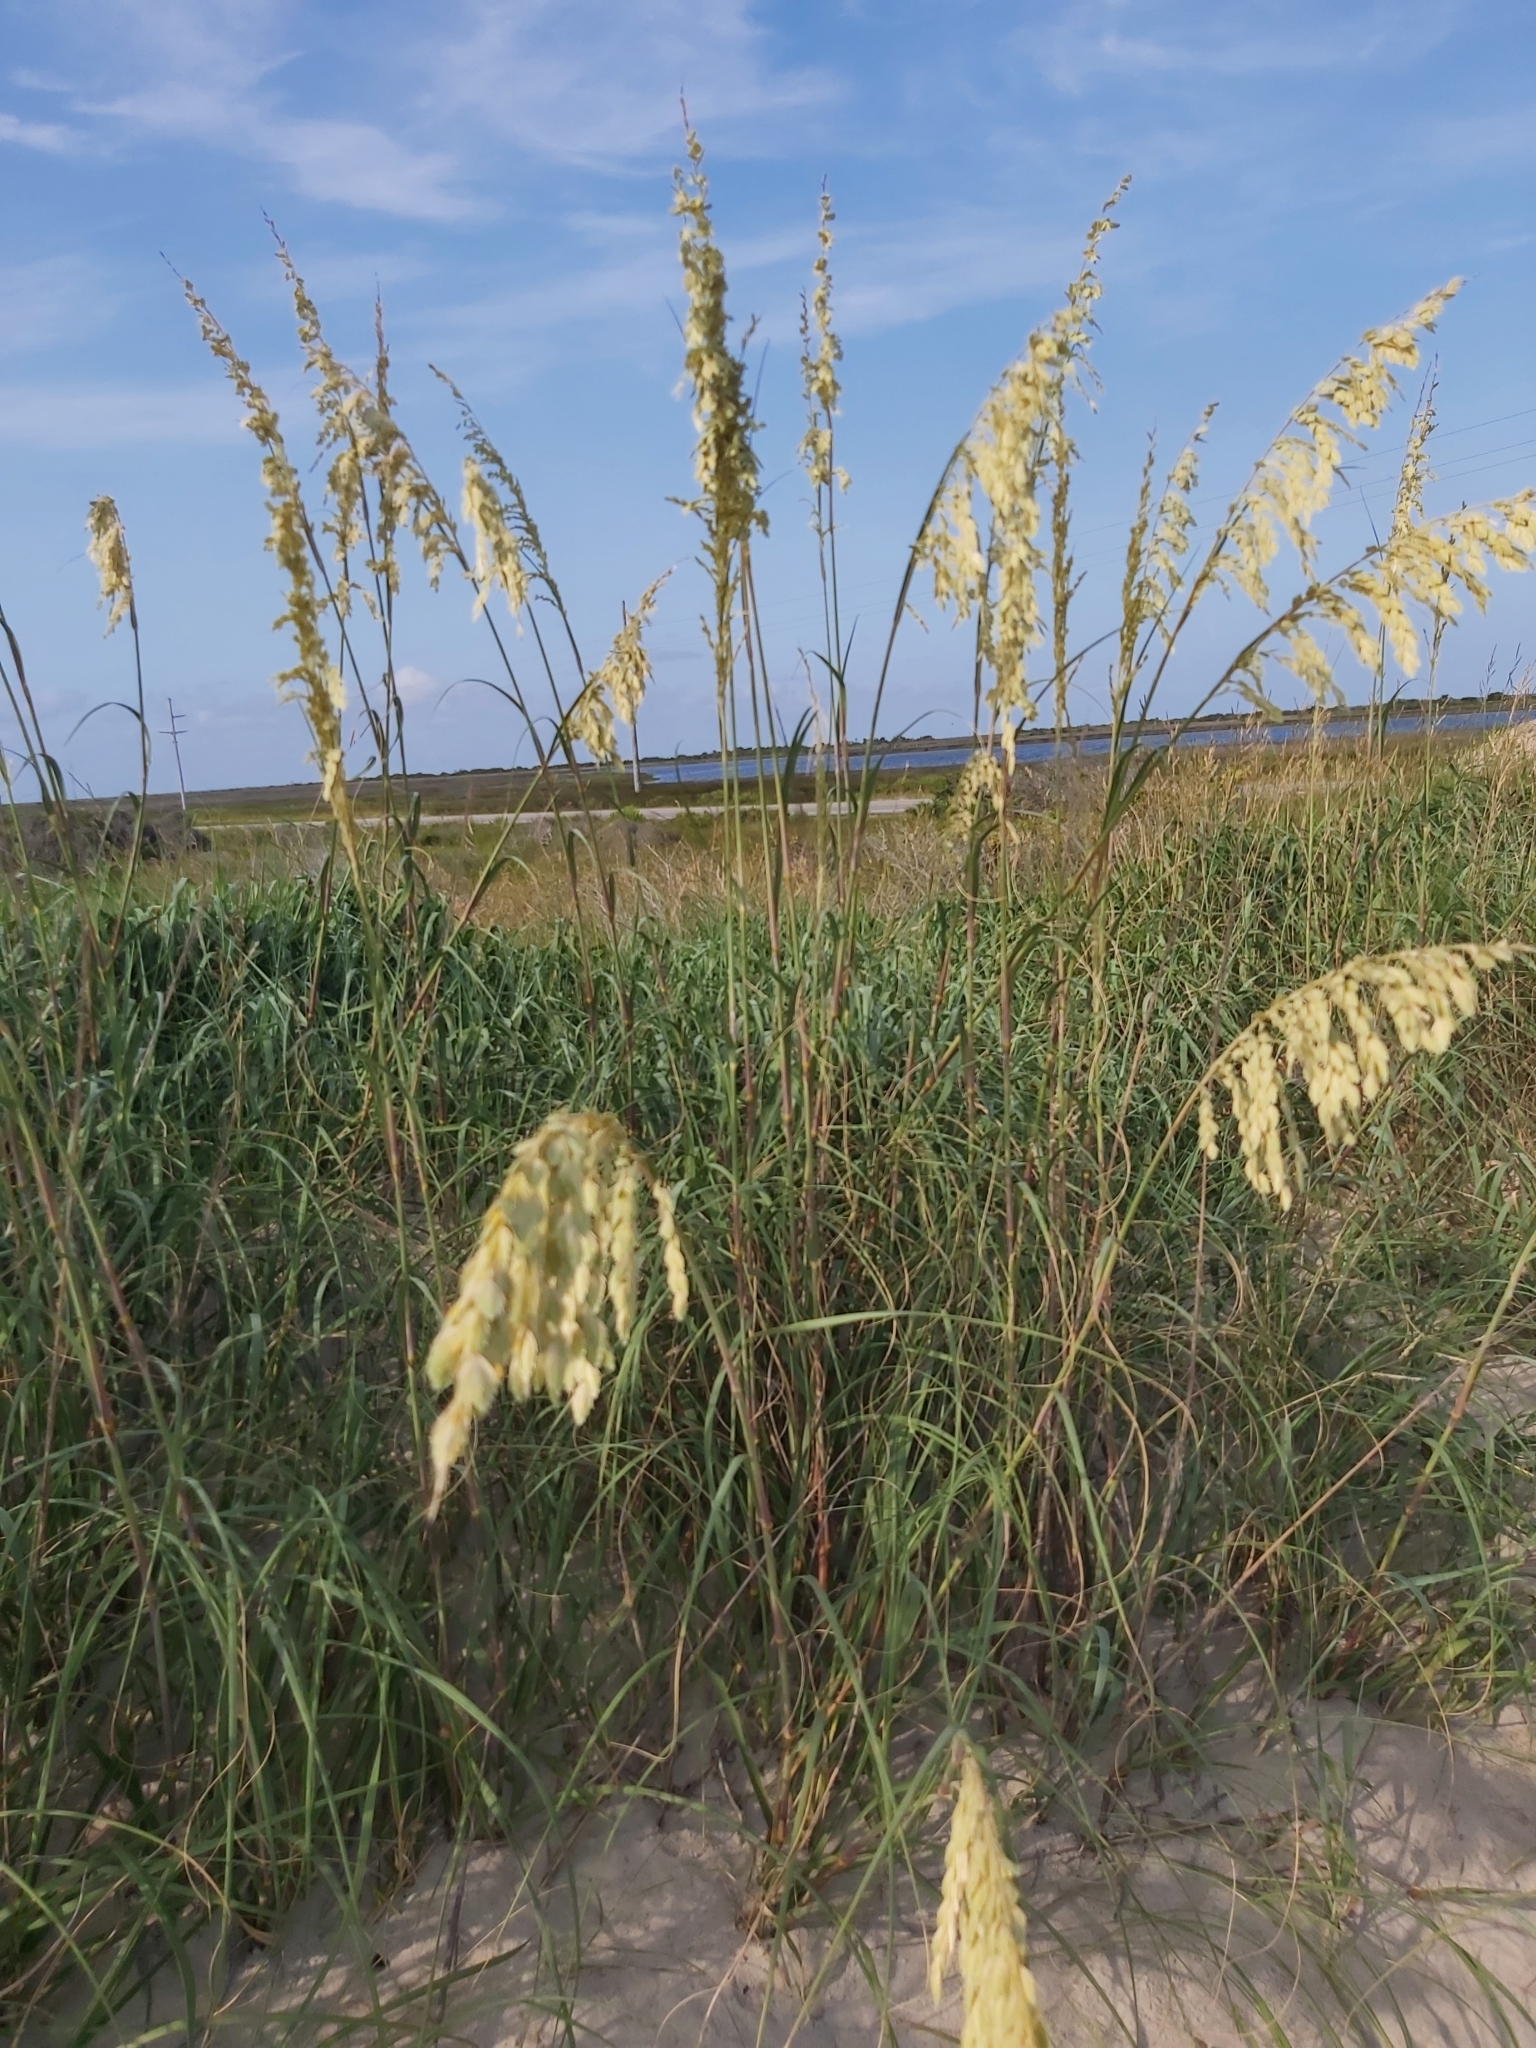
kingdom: Plantae
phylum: Tracheophyta
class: Liliopsida
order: Poales
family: Poaceae
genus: Uniola
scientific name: Uniola paniculata
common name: Seaside-oats
